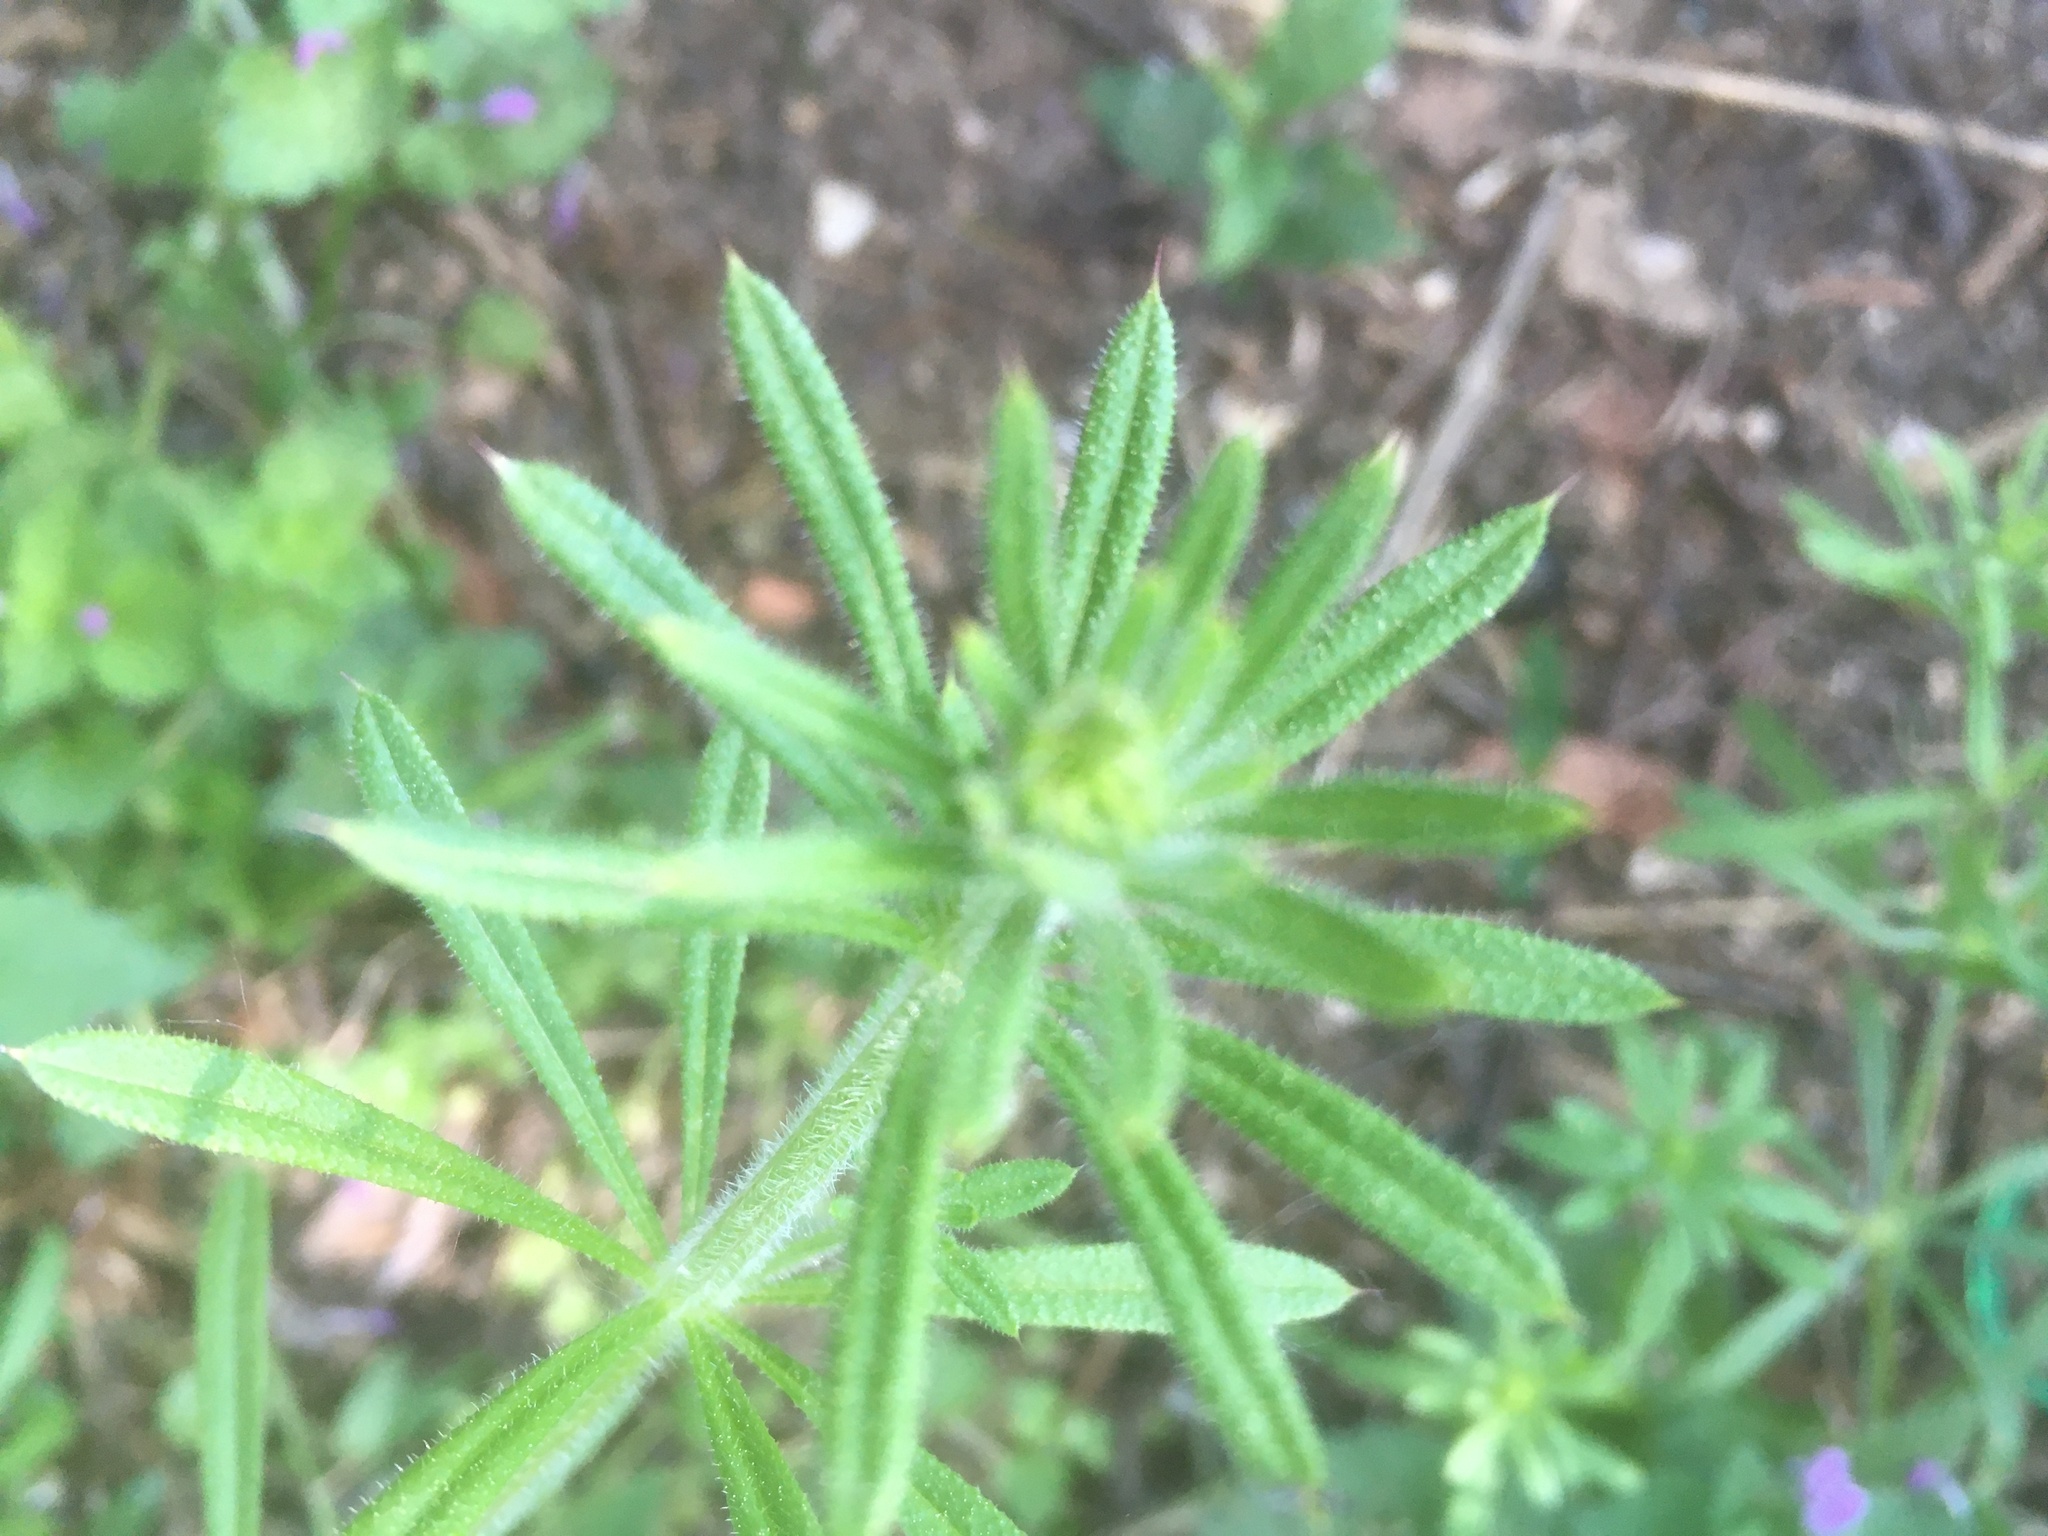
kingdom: Plantae
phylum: Tracheophyta
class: Magnoliopsida
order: Gentianales
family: Rubiaceae
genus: Galium
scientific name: Galium aparine
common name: Cleavers
